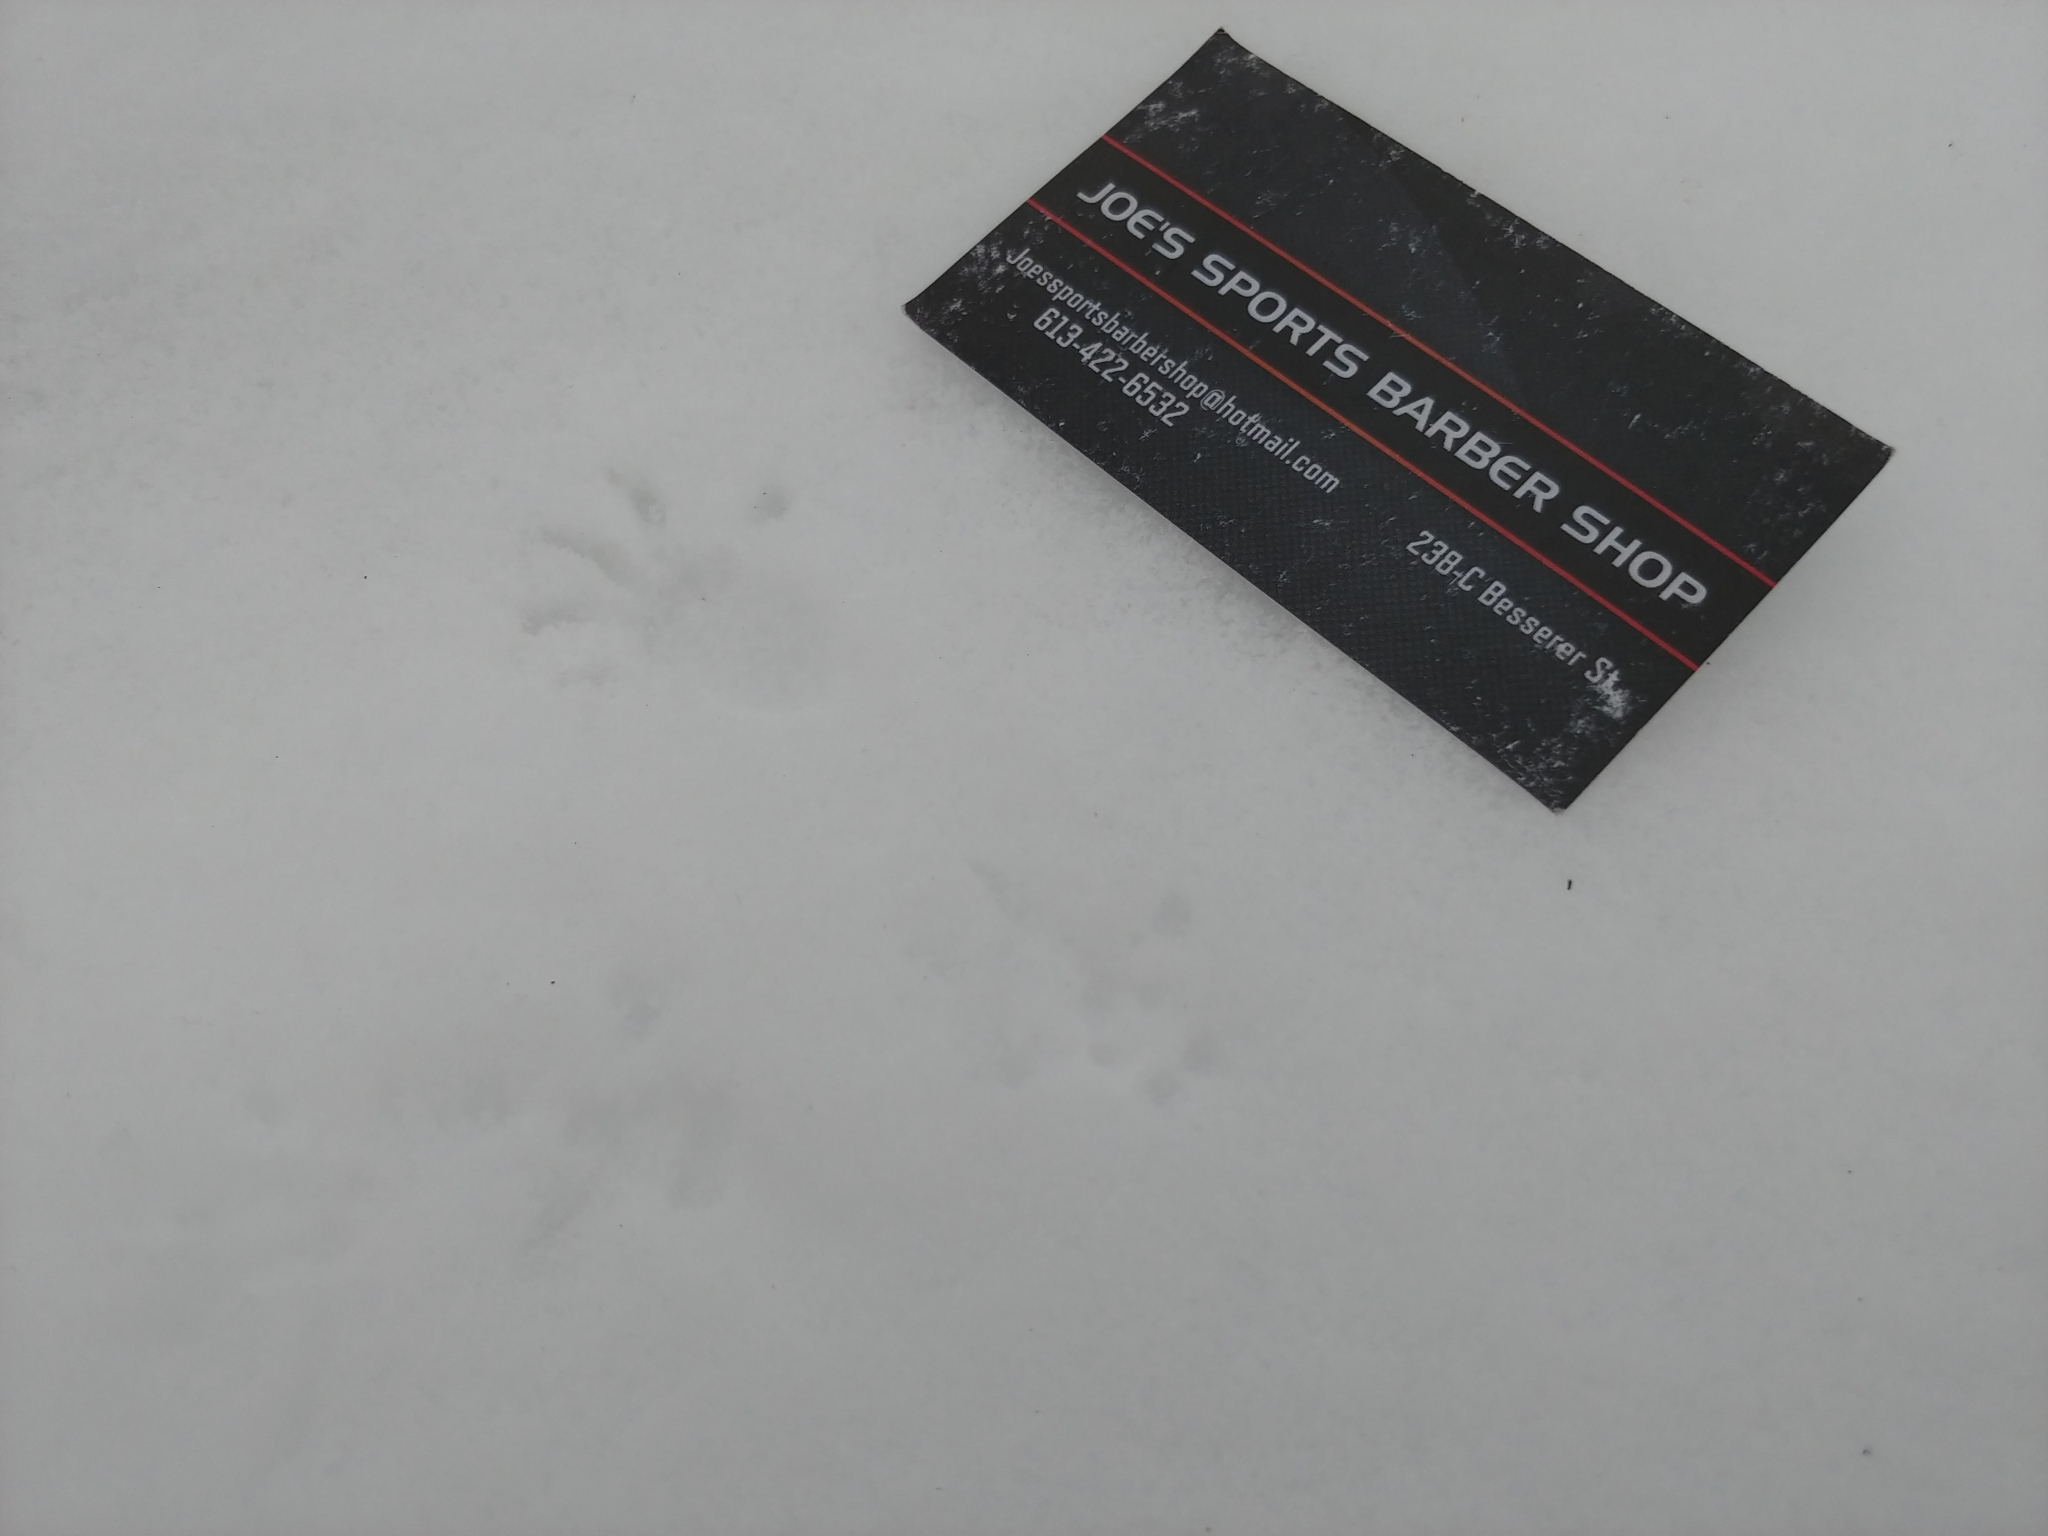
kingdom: Animalia
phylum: Chordata
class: Mammalia
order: Rodentia
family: Sciuridae
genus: Tamiasciurus
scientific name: Tamiasciurus hudsonicus
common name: Red squirrel
